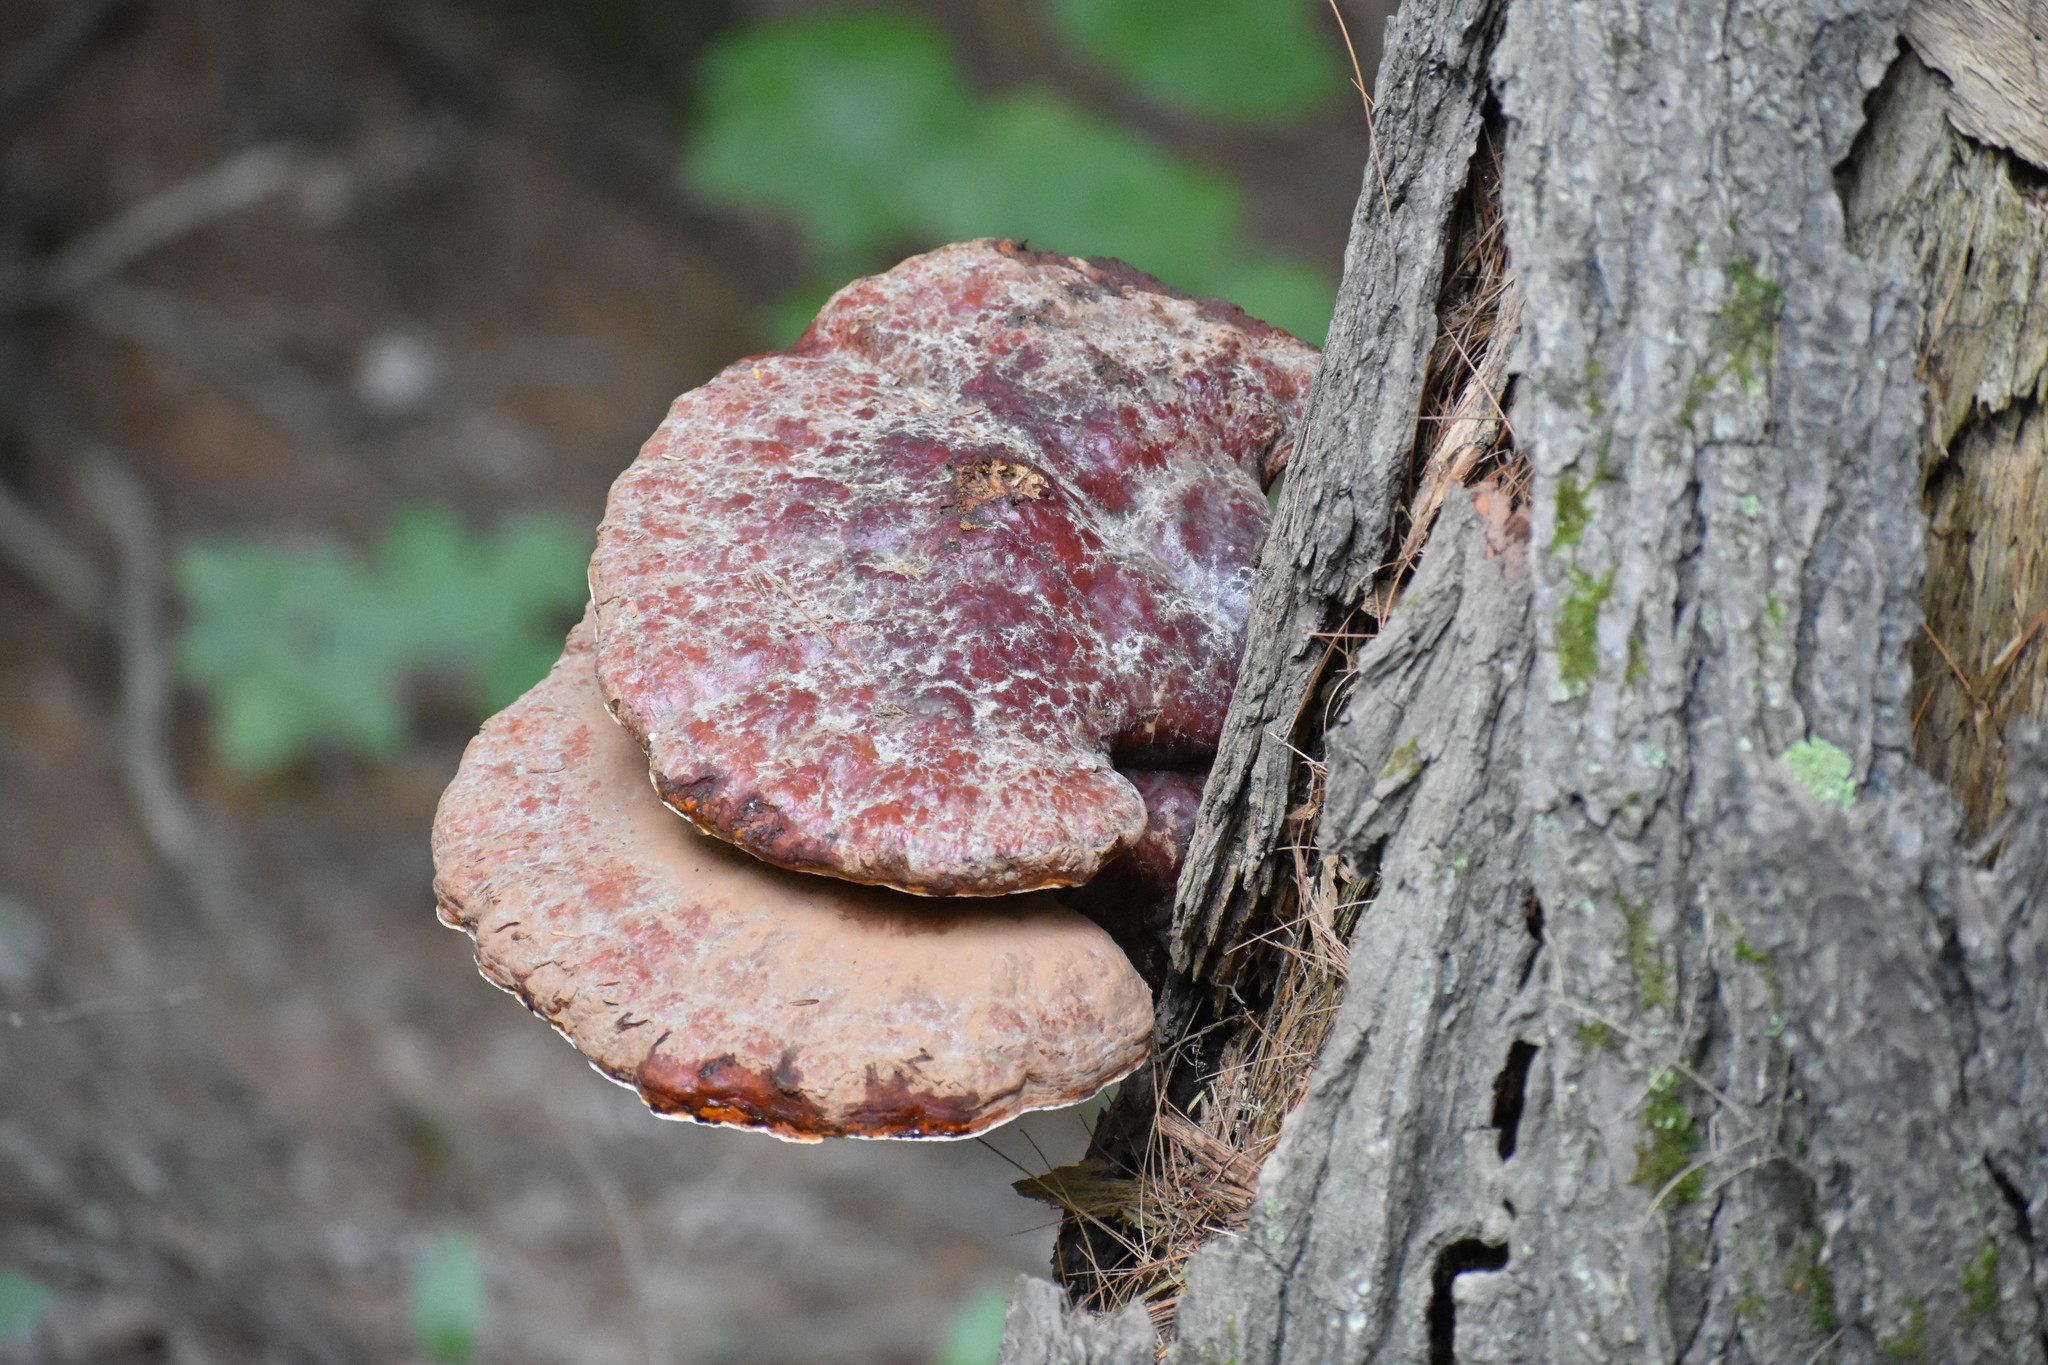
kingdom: Fungi
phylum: Basidiomycota
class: Agaricomycetes
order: Polyporales
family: Polyporaceae
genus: Ganoderma
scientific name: Ganoderma tsugae
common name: Hemlock varnish shelf
